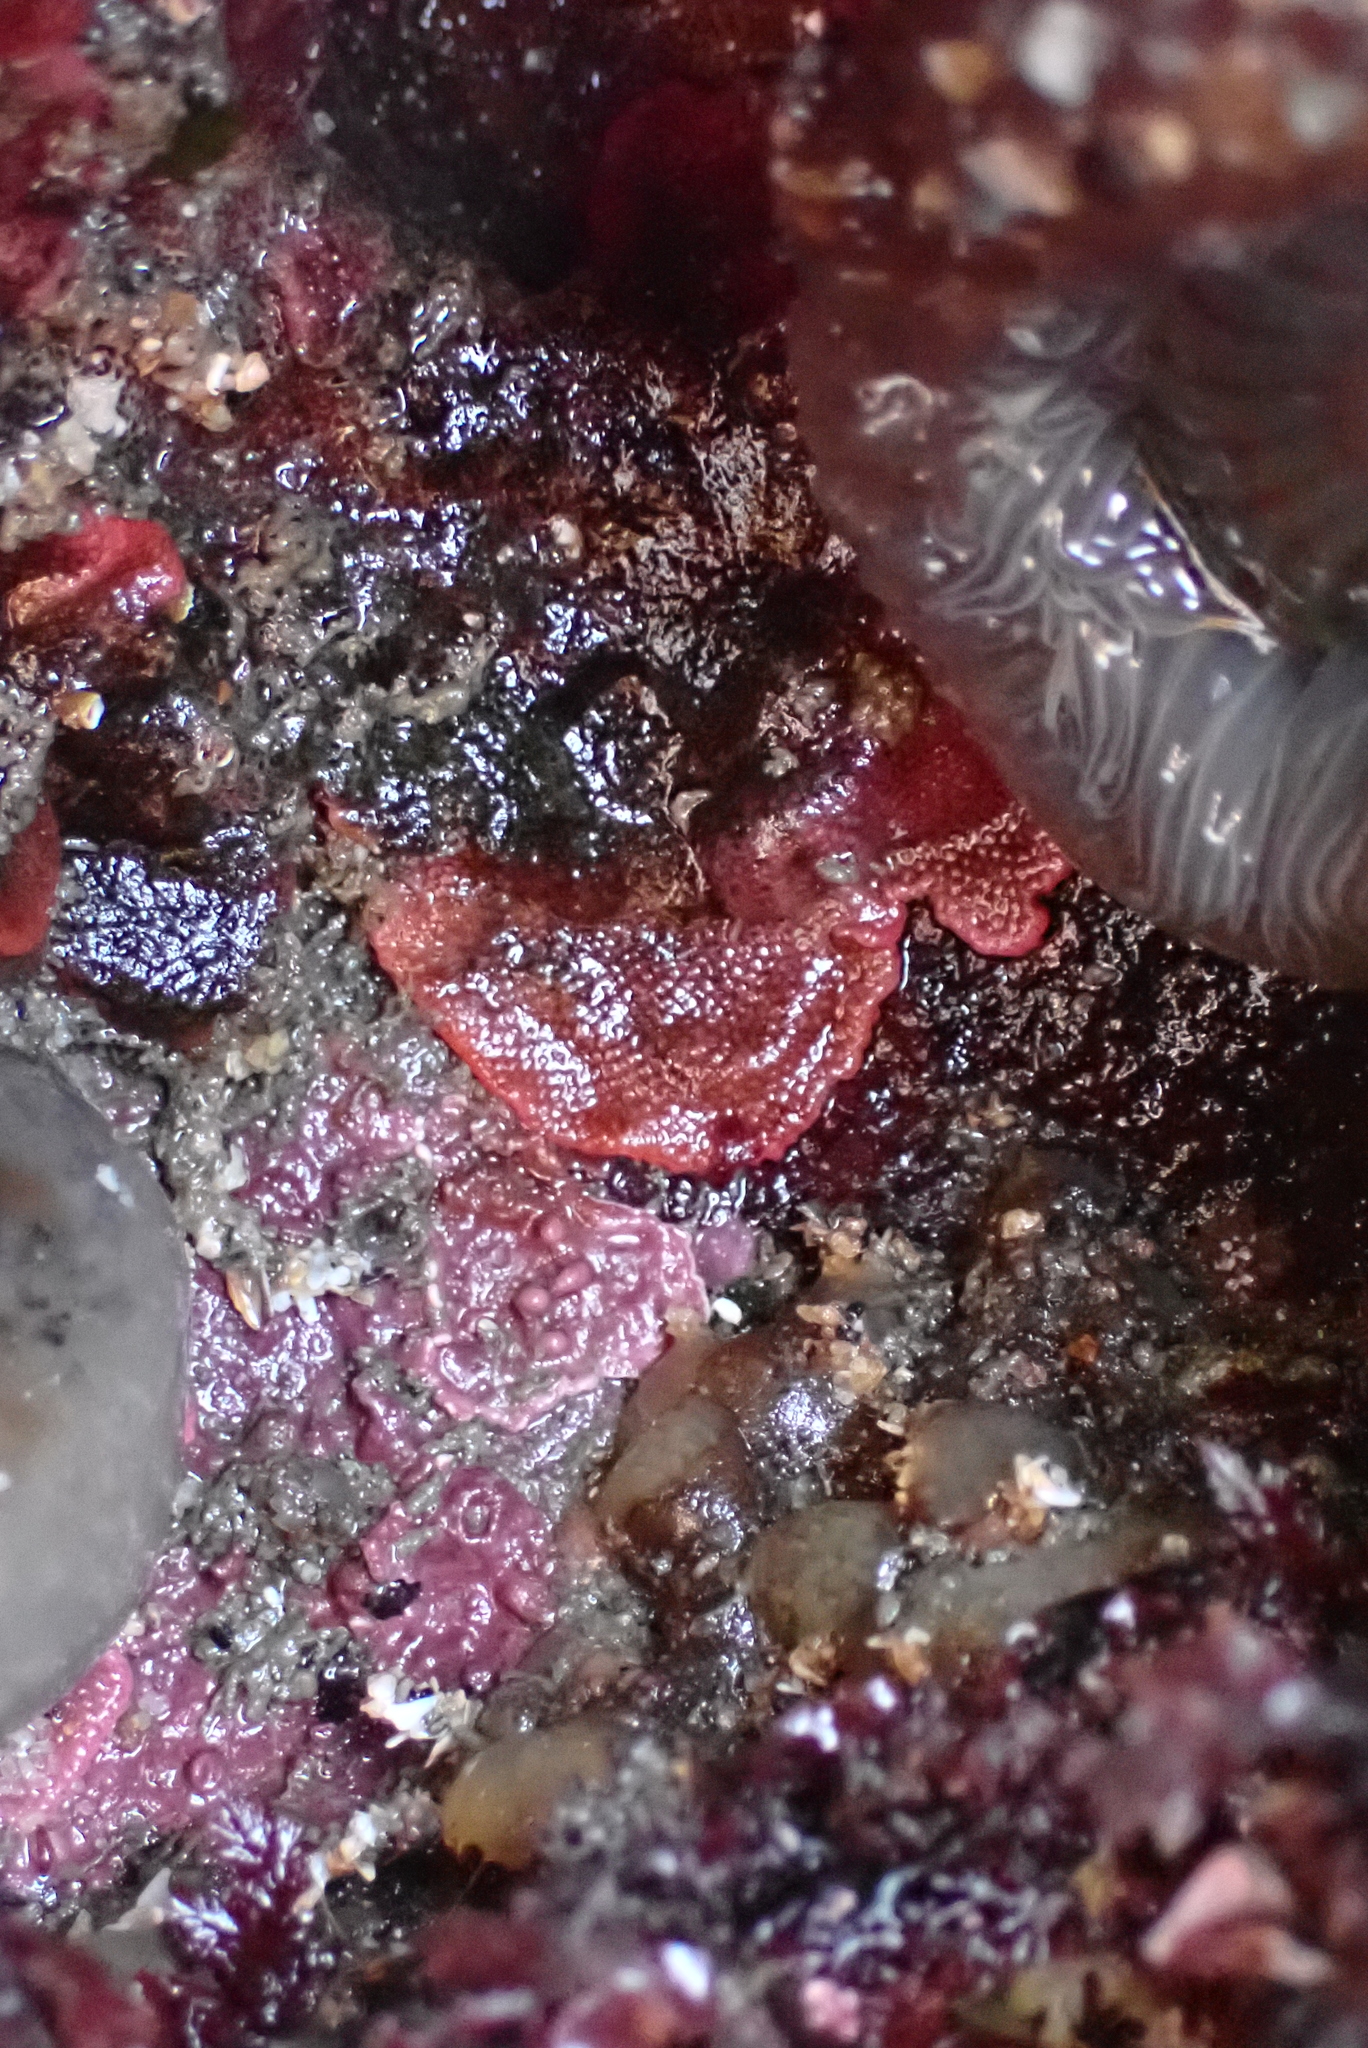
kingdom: Animalia
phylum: Bryozoa
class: Gymnolaemata
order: Cheilostomatida
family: Eurystomellidae
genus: Integripelta
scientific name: Integripelta bilabiata
